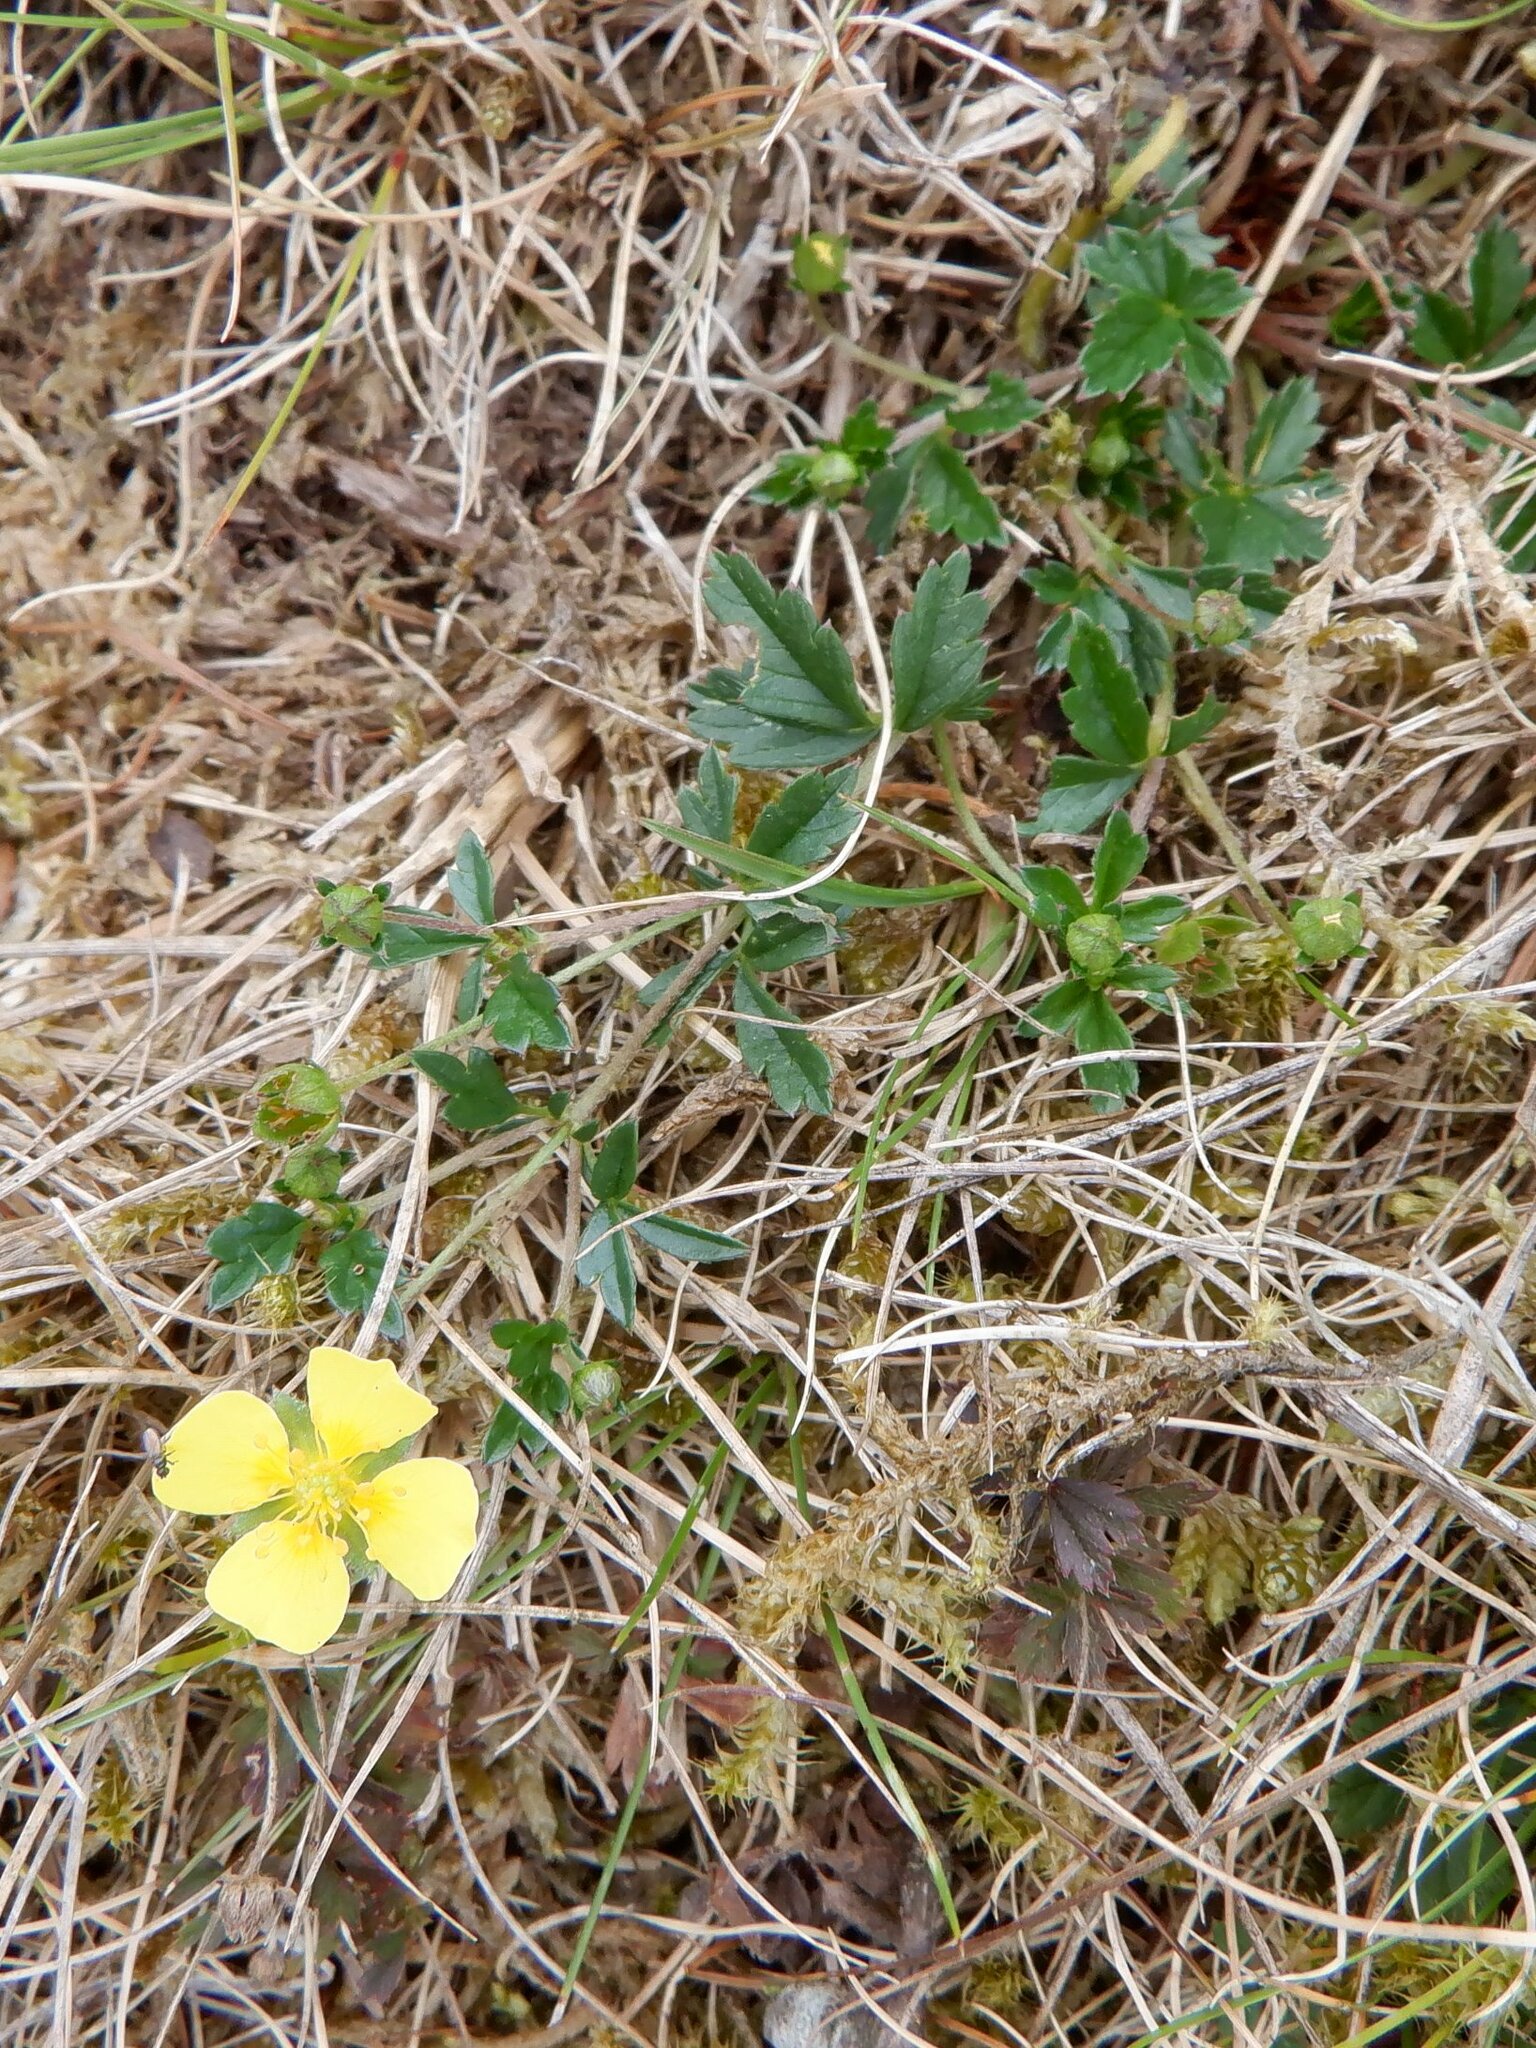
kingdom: Plantae
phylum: Tracheophyta
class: Magnoliopsida
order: Rosales
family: Rosaceae
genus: Potentilla
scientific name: Potentilla erecta
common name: Tormentil
